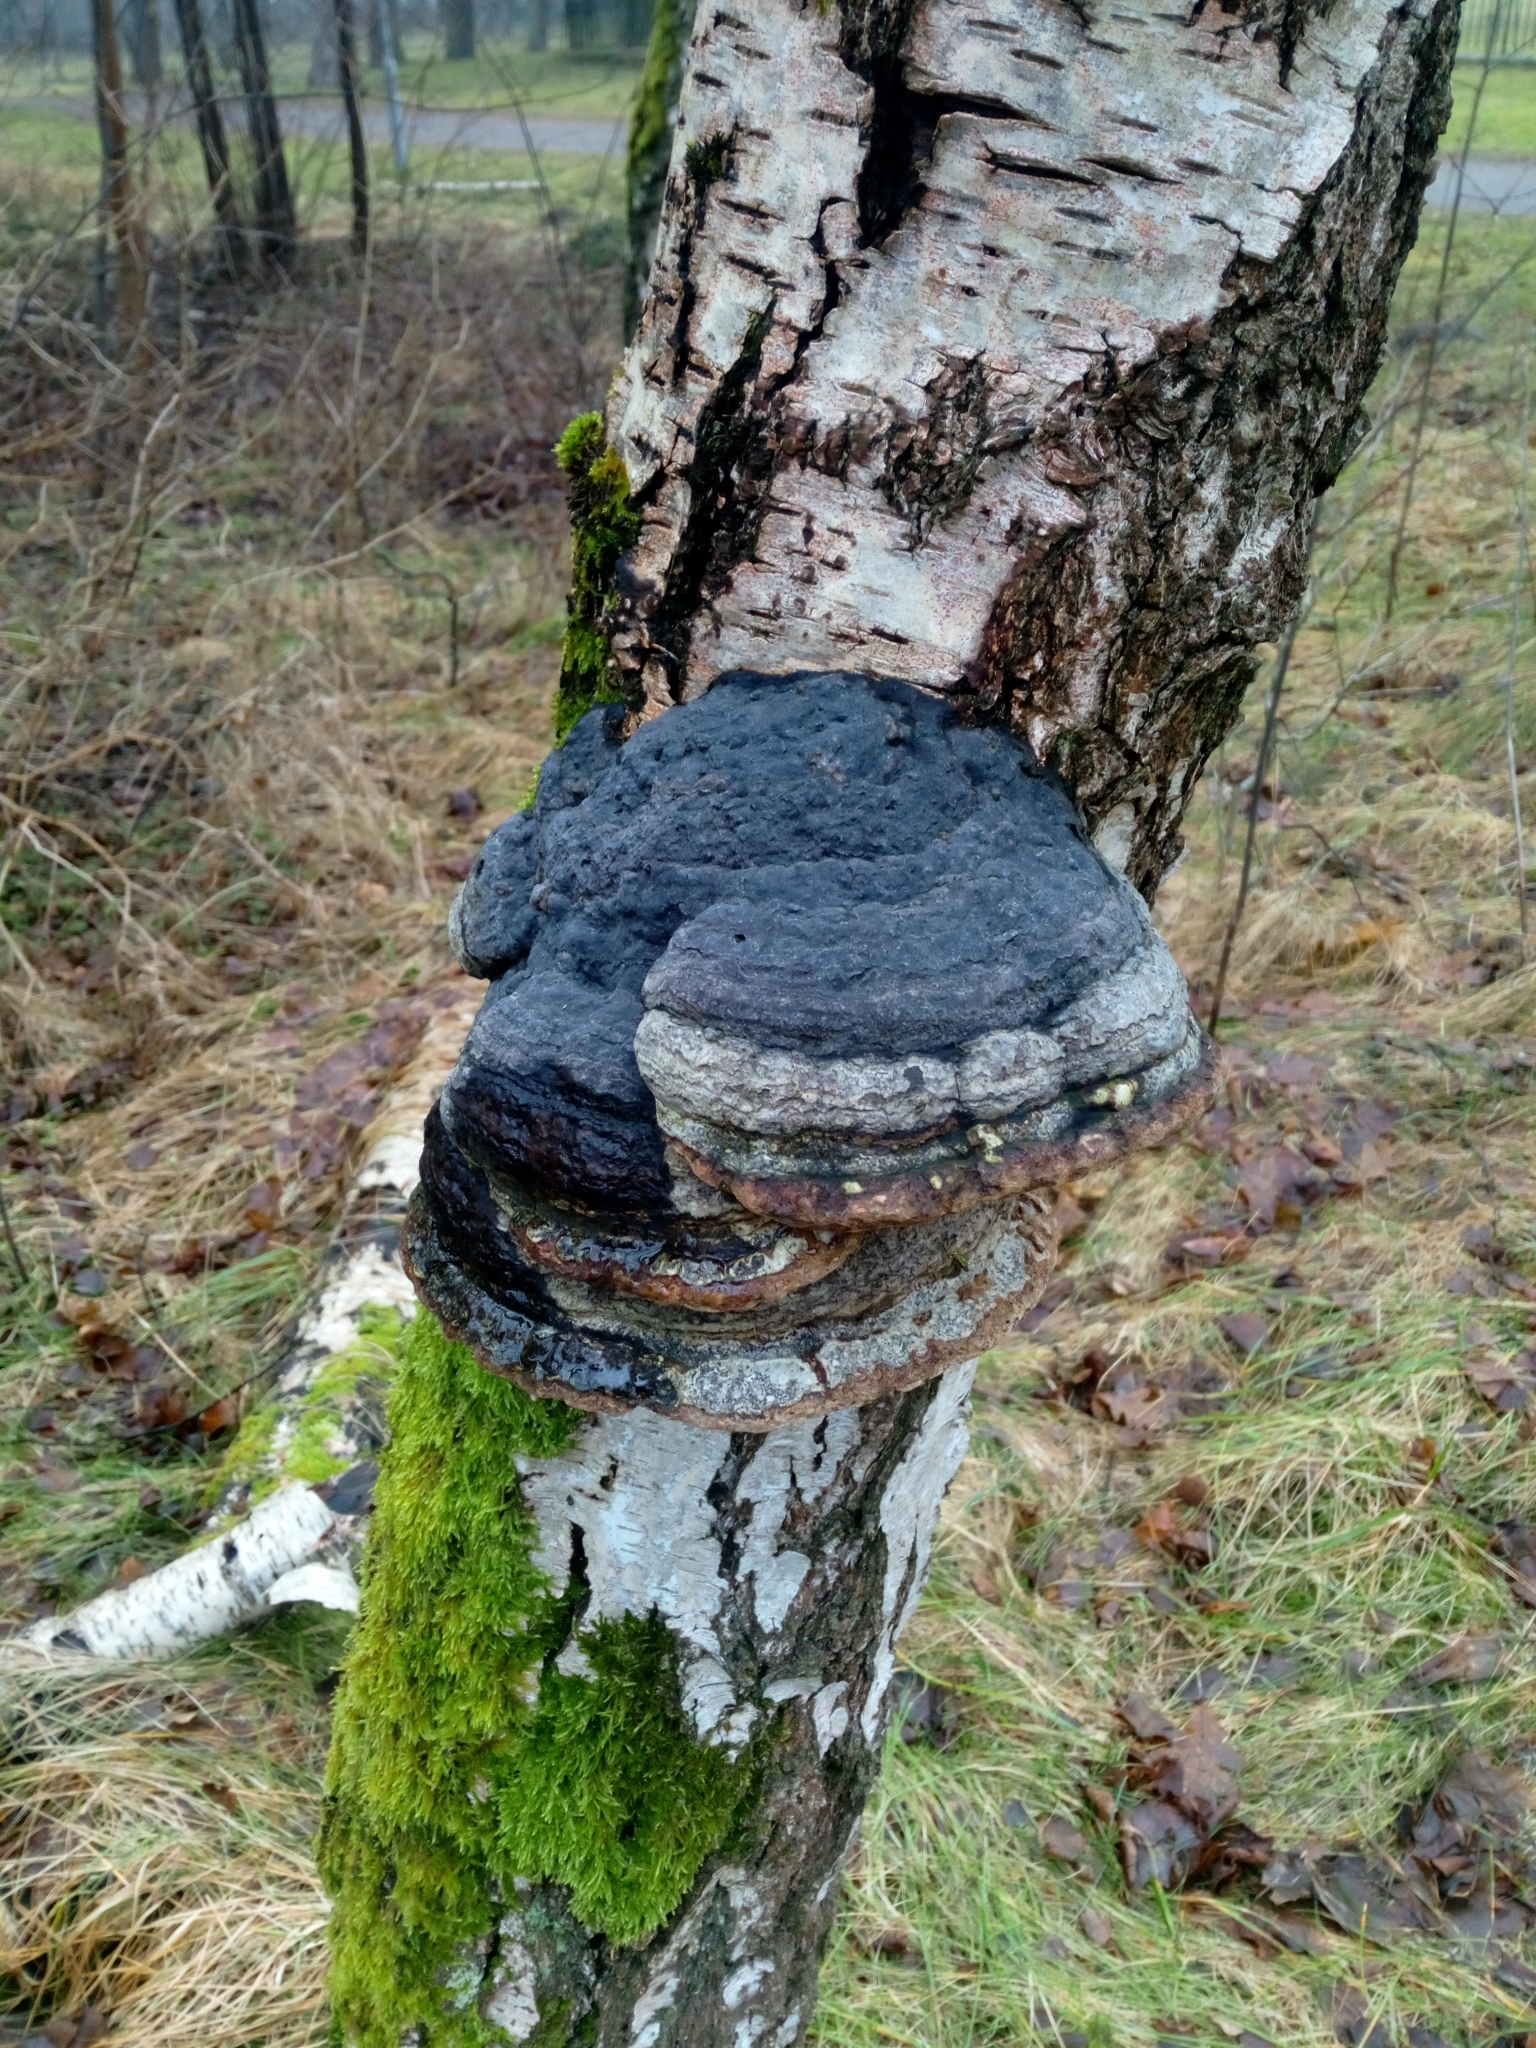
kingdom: Fungi
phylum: Basidiomycota
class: Agaricomycetes
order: Polyporales
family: Polyporaceae
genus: Fomes
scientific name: Fomes fomentarius
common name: Hoof fungus
